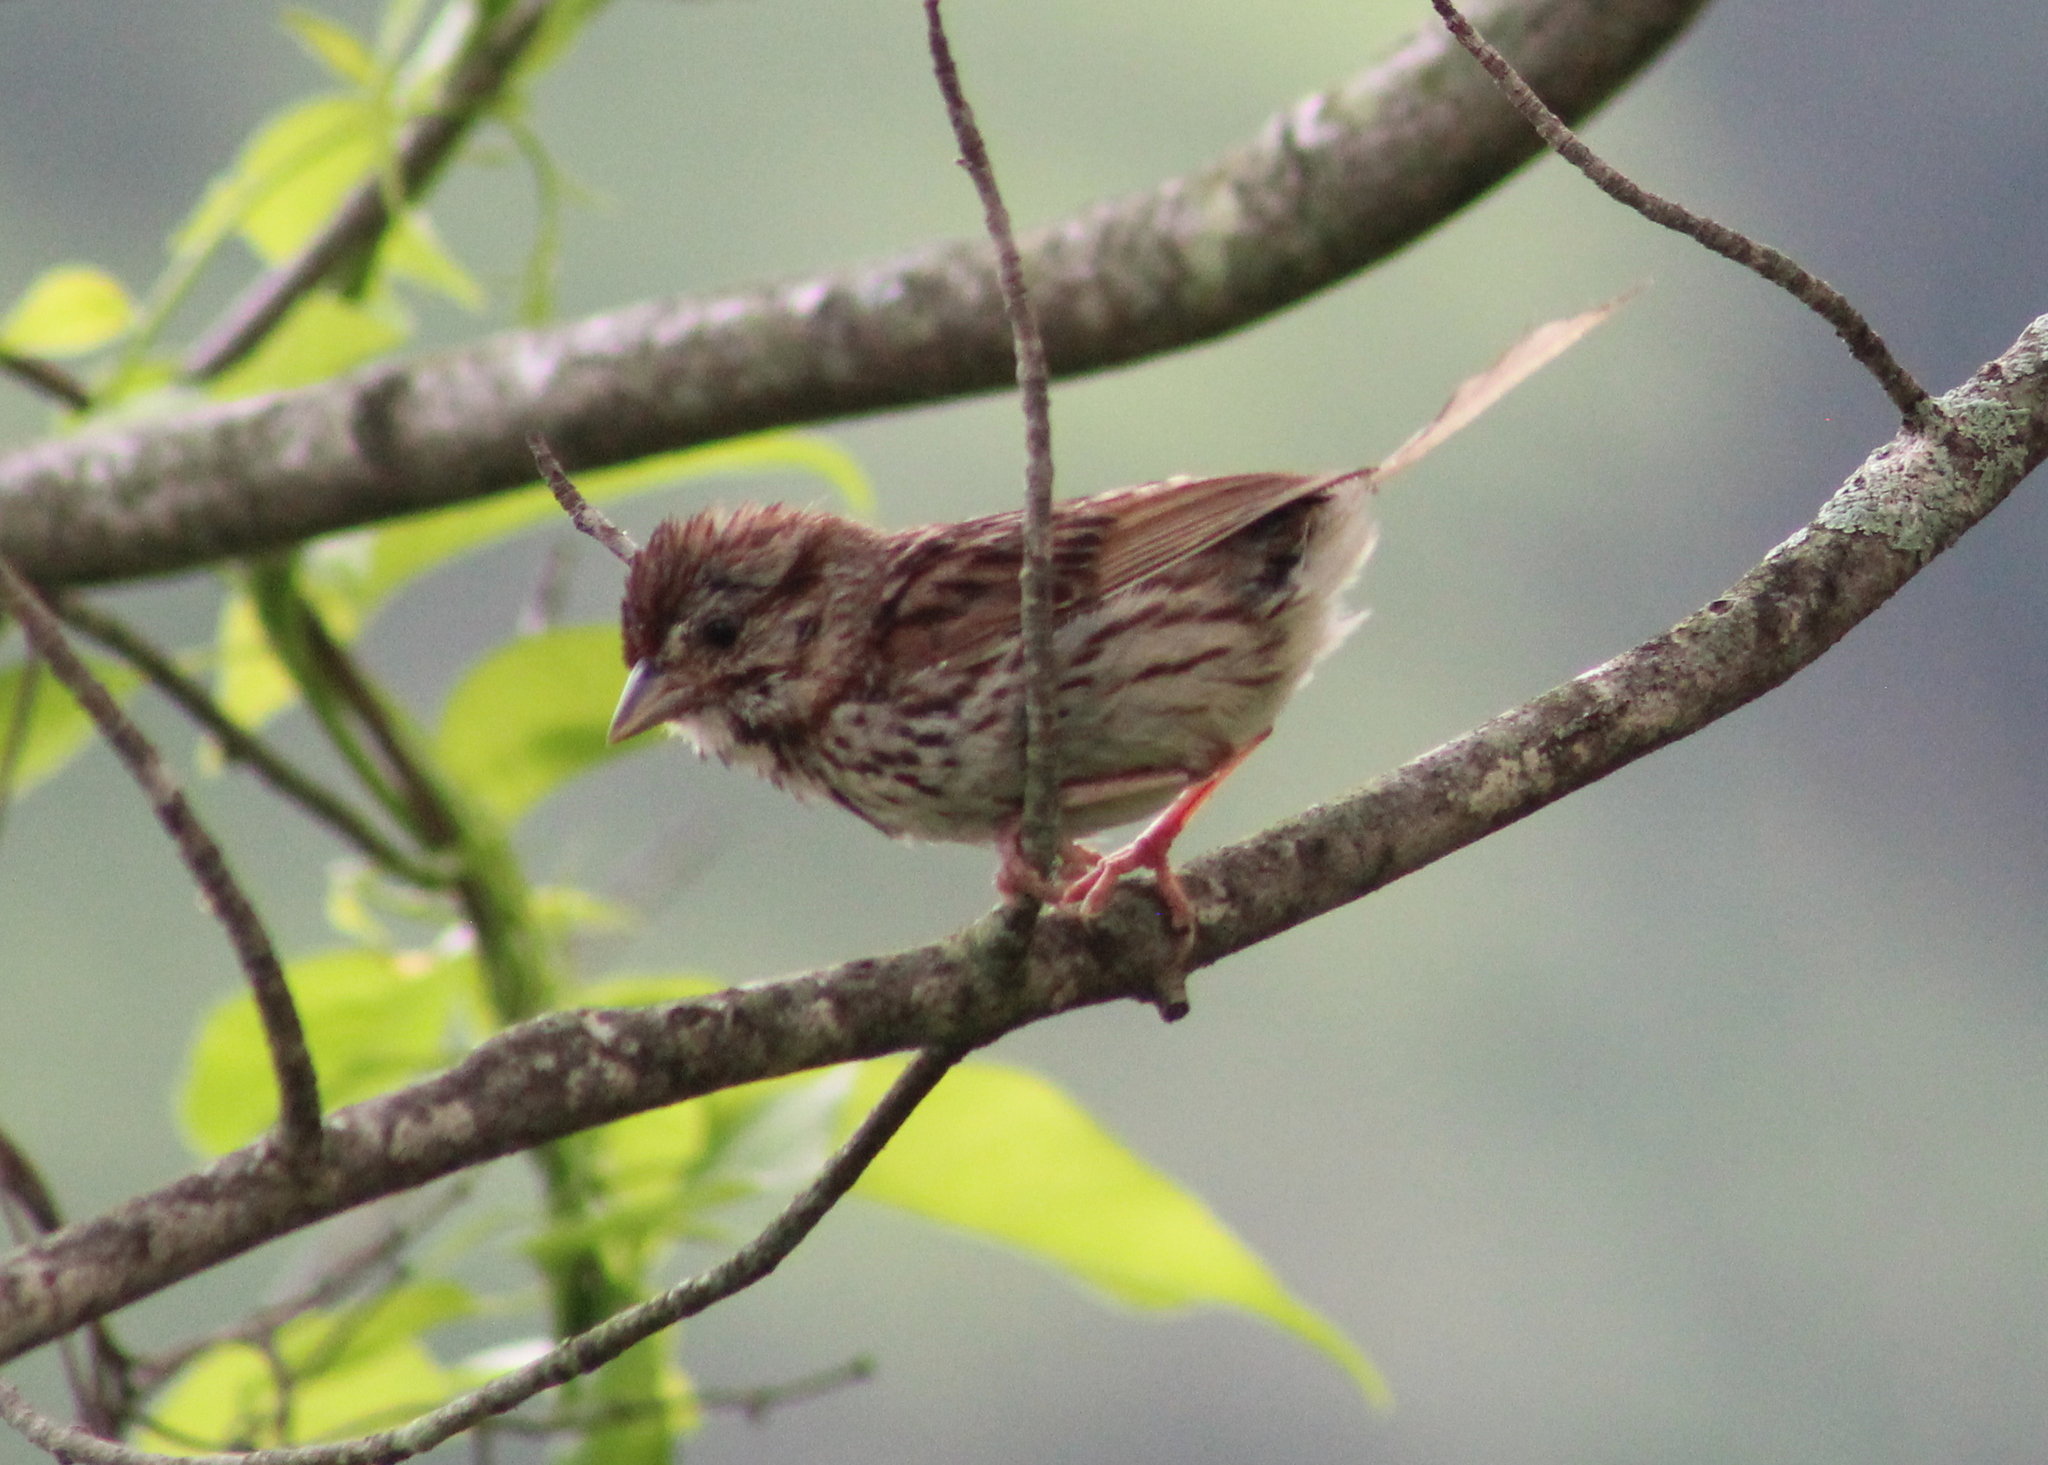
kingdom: Animalia
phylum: Chordata
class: Aves
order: Passeriformes
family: Passerellidae
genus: Melospiza
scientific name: Melospiza melodia
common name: Song sparrow
